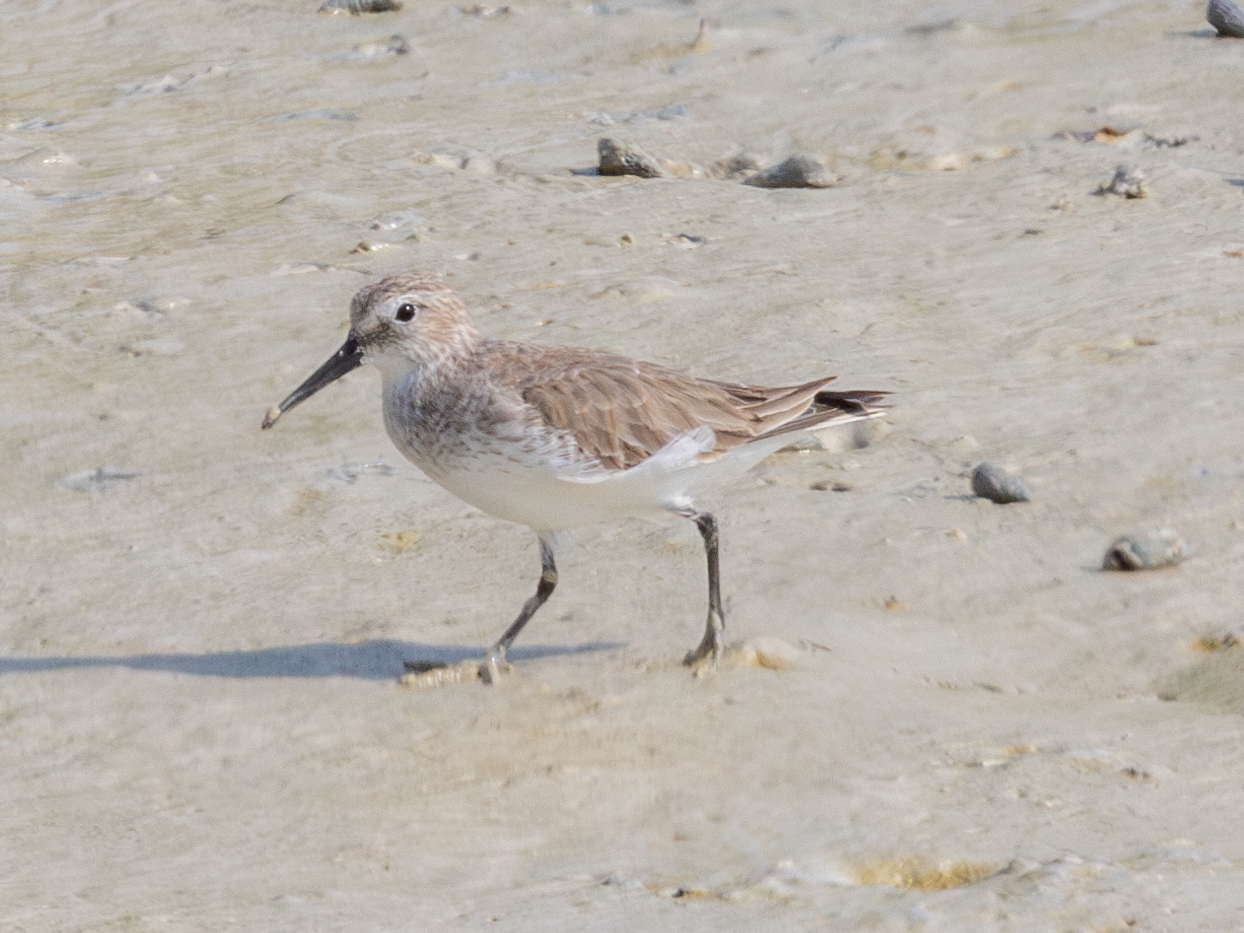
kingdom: Animalia
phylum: Chordata
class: Aves
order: Charadriiformes
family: Scolopacidae
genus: Calidris
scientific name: Calidris alpina
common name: Dunlin
